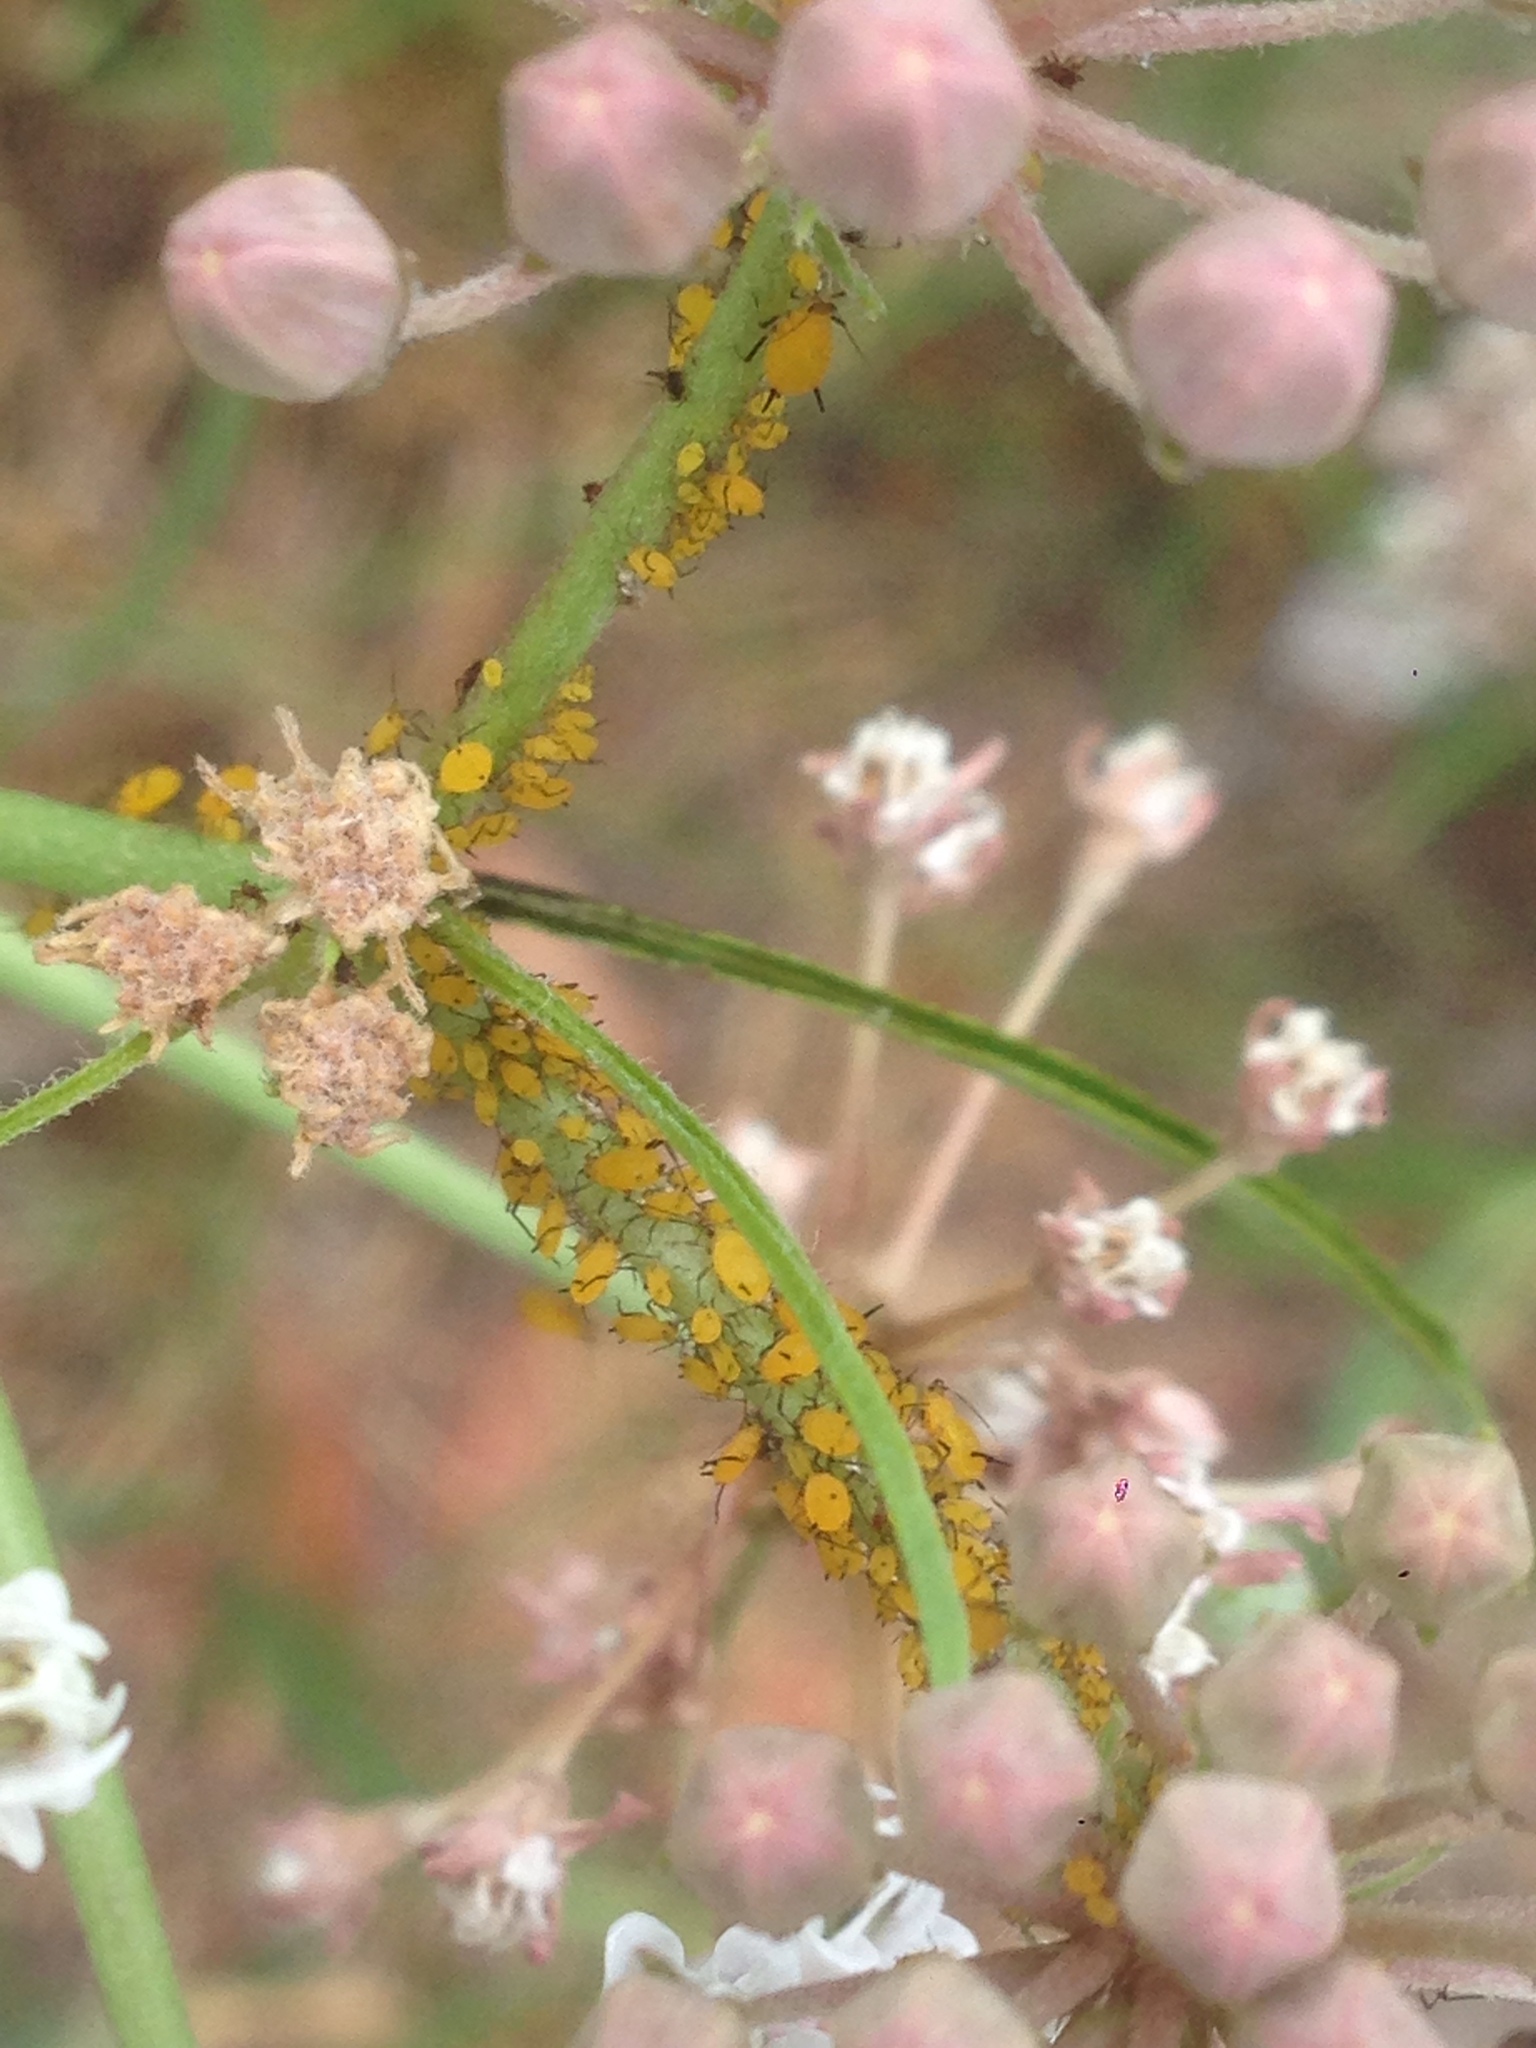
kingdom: Animalia
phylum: Arthropoda
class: Insecta
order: Hemiptera
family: Aphididae
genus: Aphis
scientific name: Aphis nerii
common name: Oleander aphid
